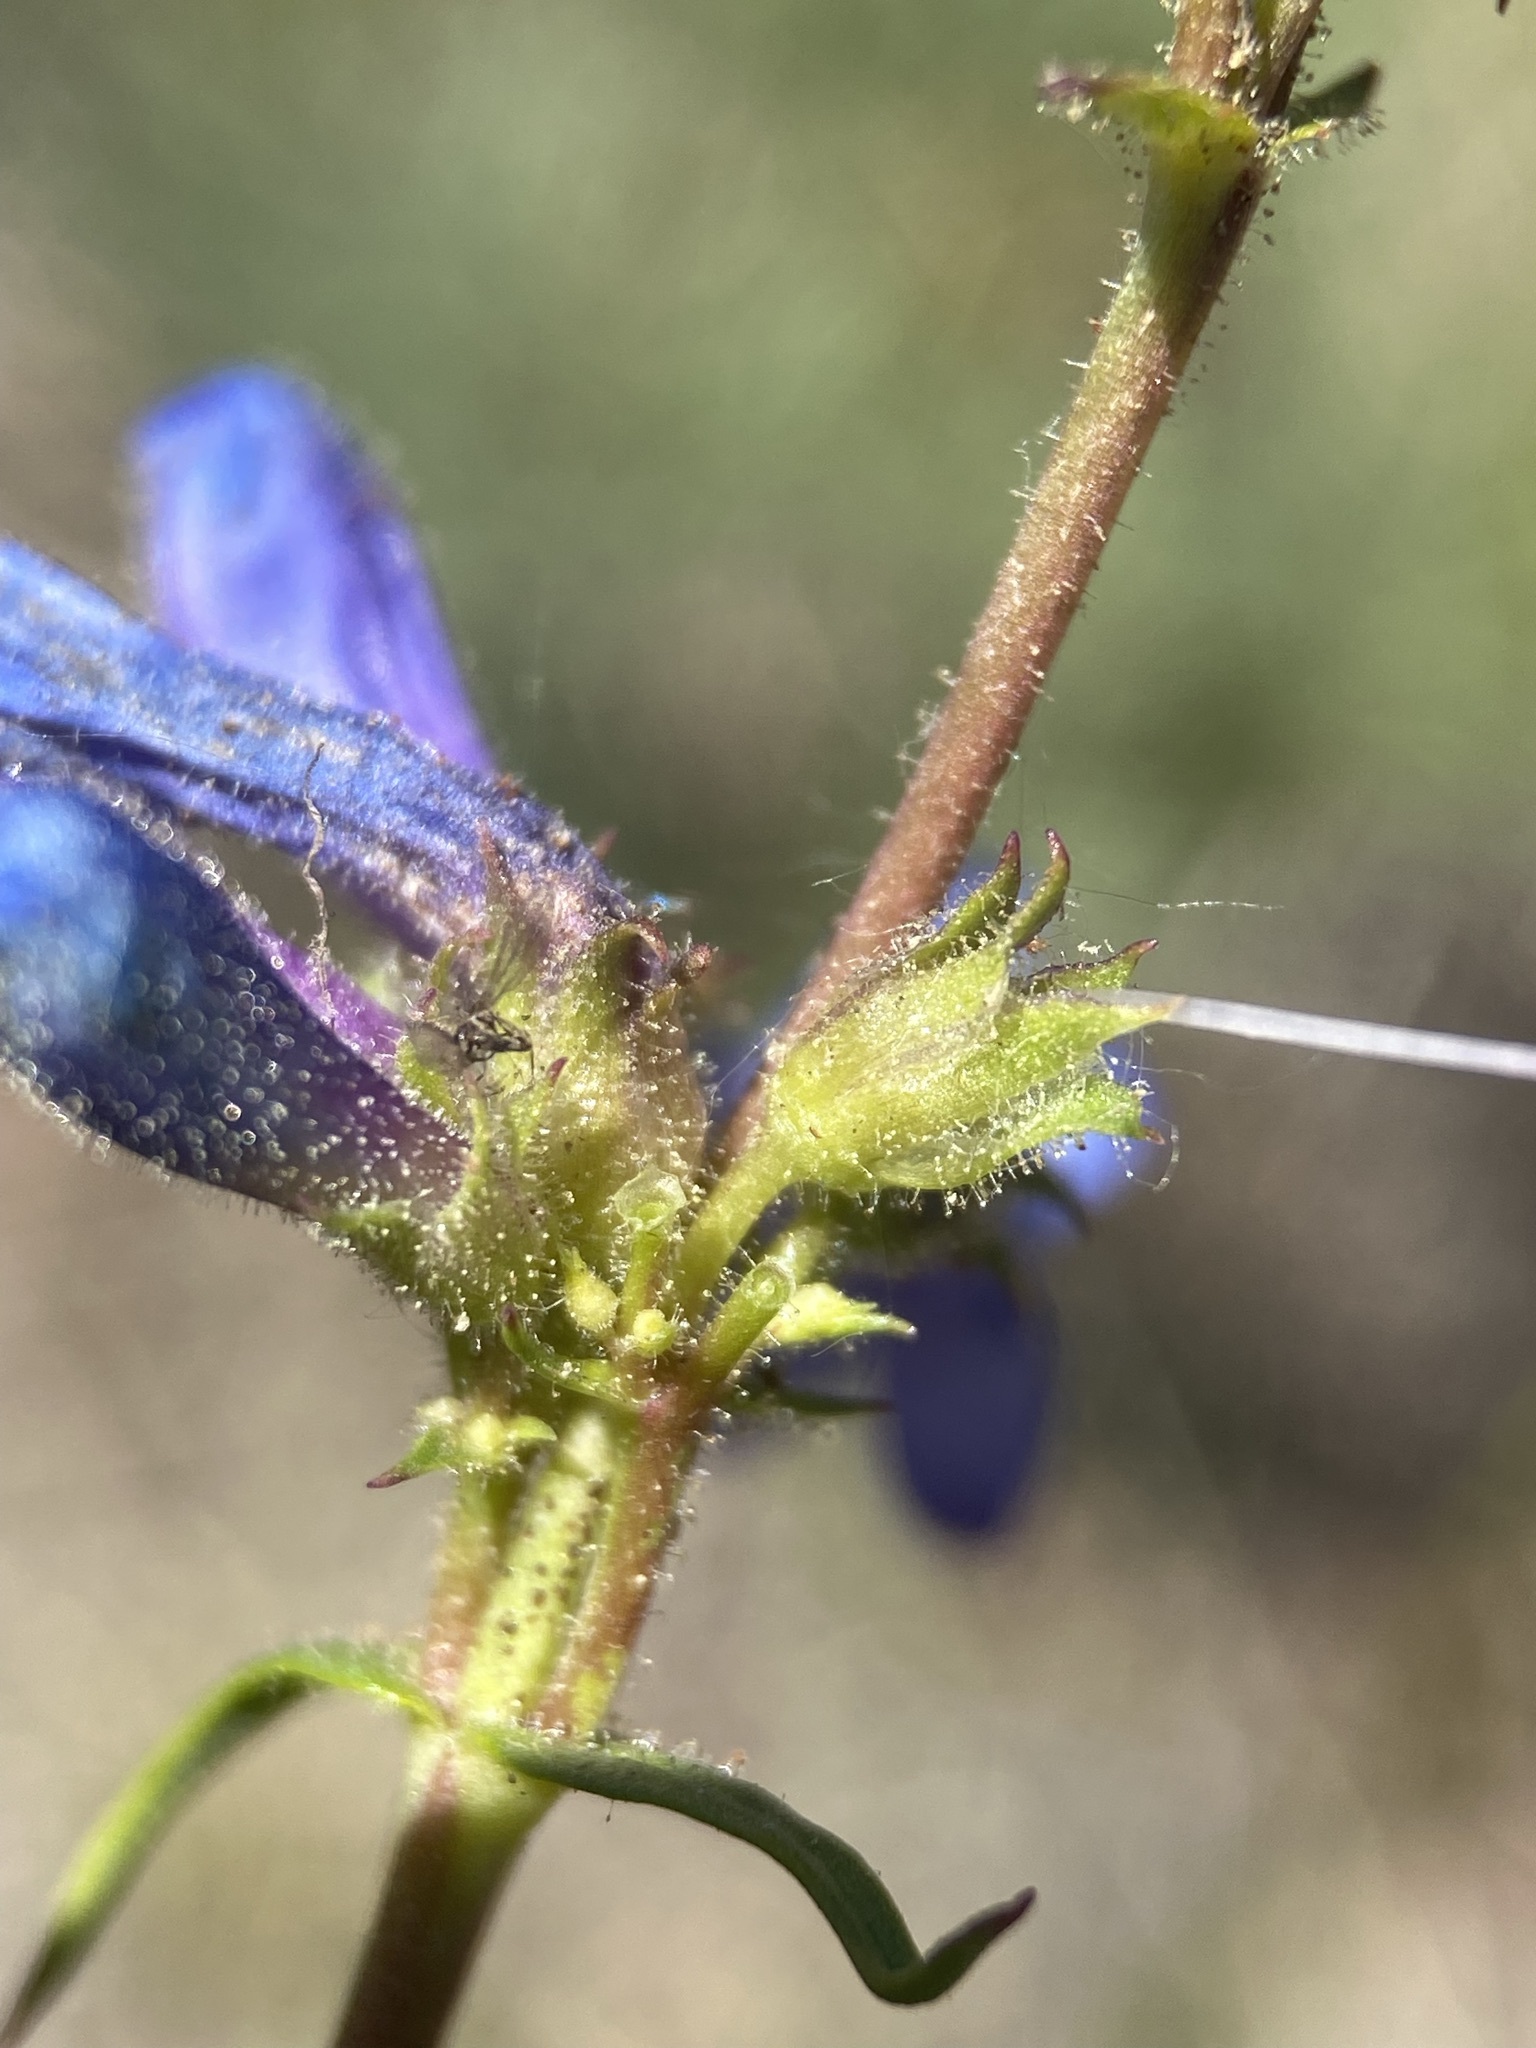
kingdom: Plantae
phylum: Tracheophyta
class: Magnoliopsida
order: Lamiales
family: Plantaginaceae
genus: Penstemon
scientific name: Penstemon humilis
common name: Low penstemon
